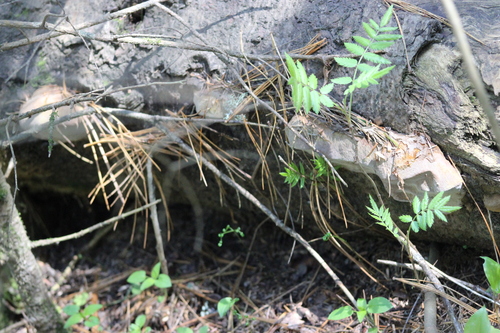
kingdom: Fungi
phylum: Basidiomycota
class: Agaricomycetes
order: Hymenochaetales
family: Hymenochaetaceae
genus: Phellinus
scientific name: Phellinus hartigii
